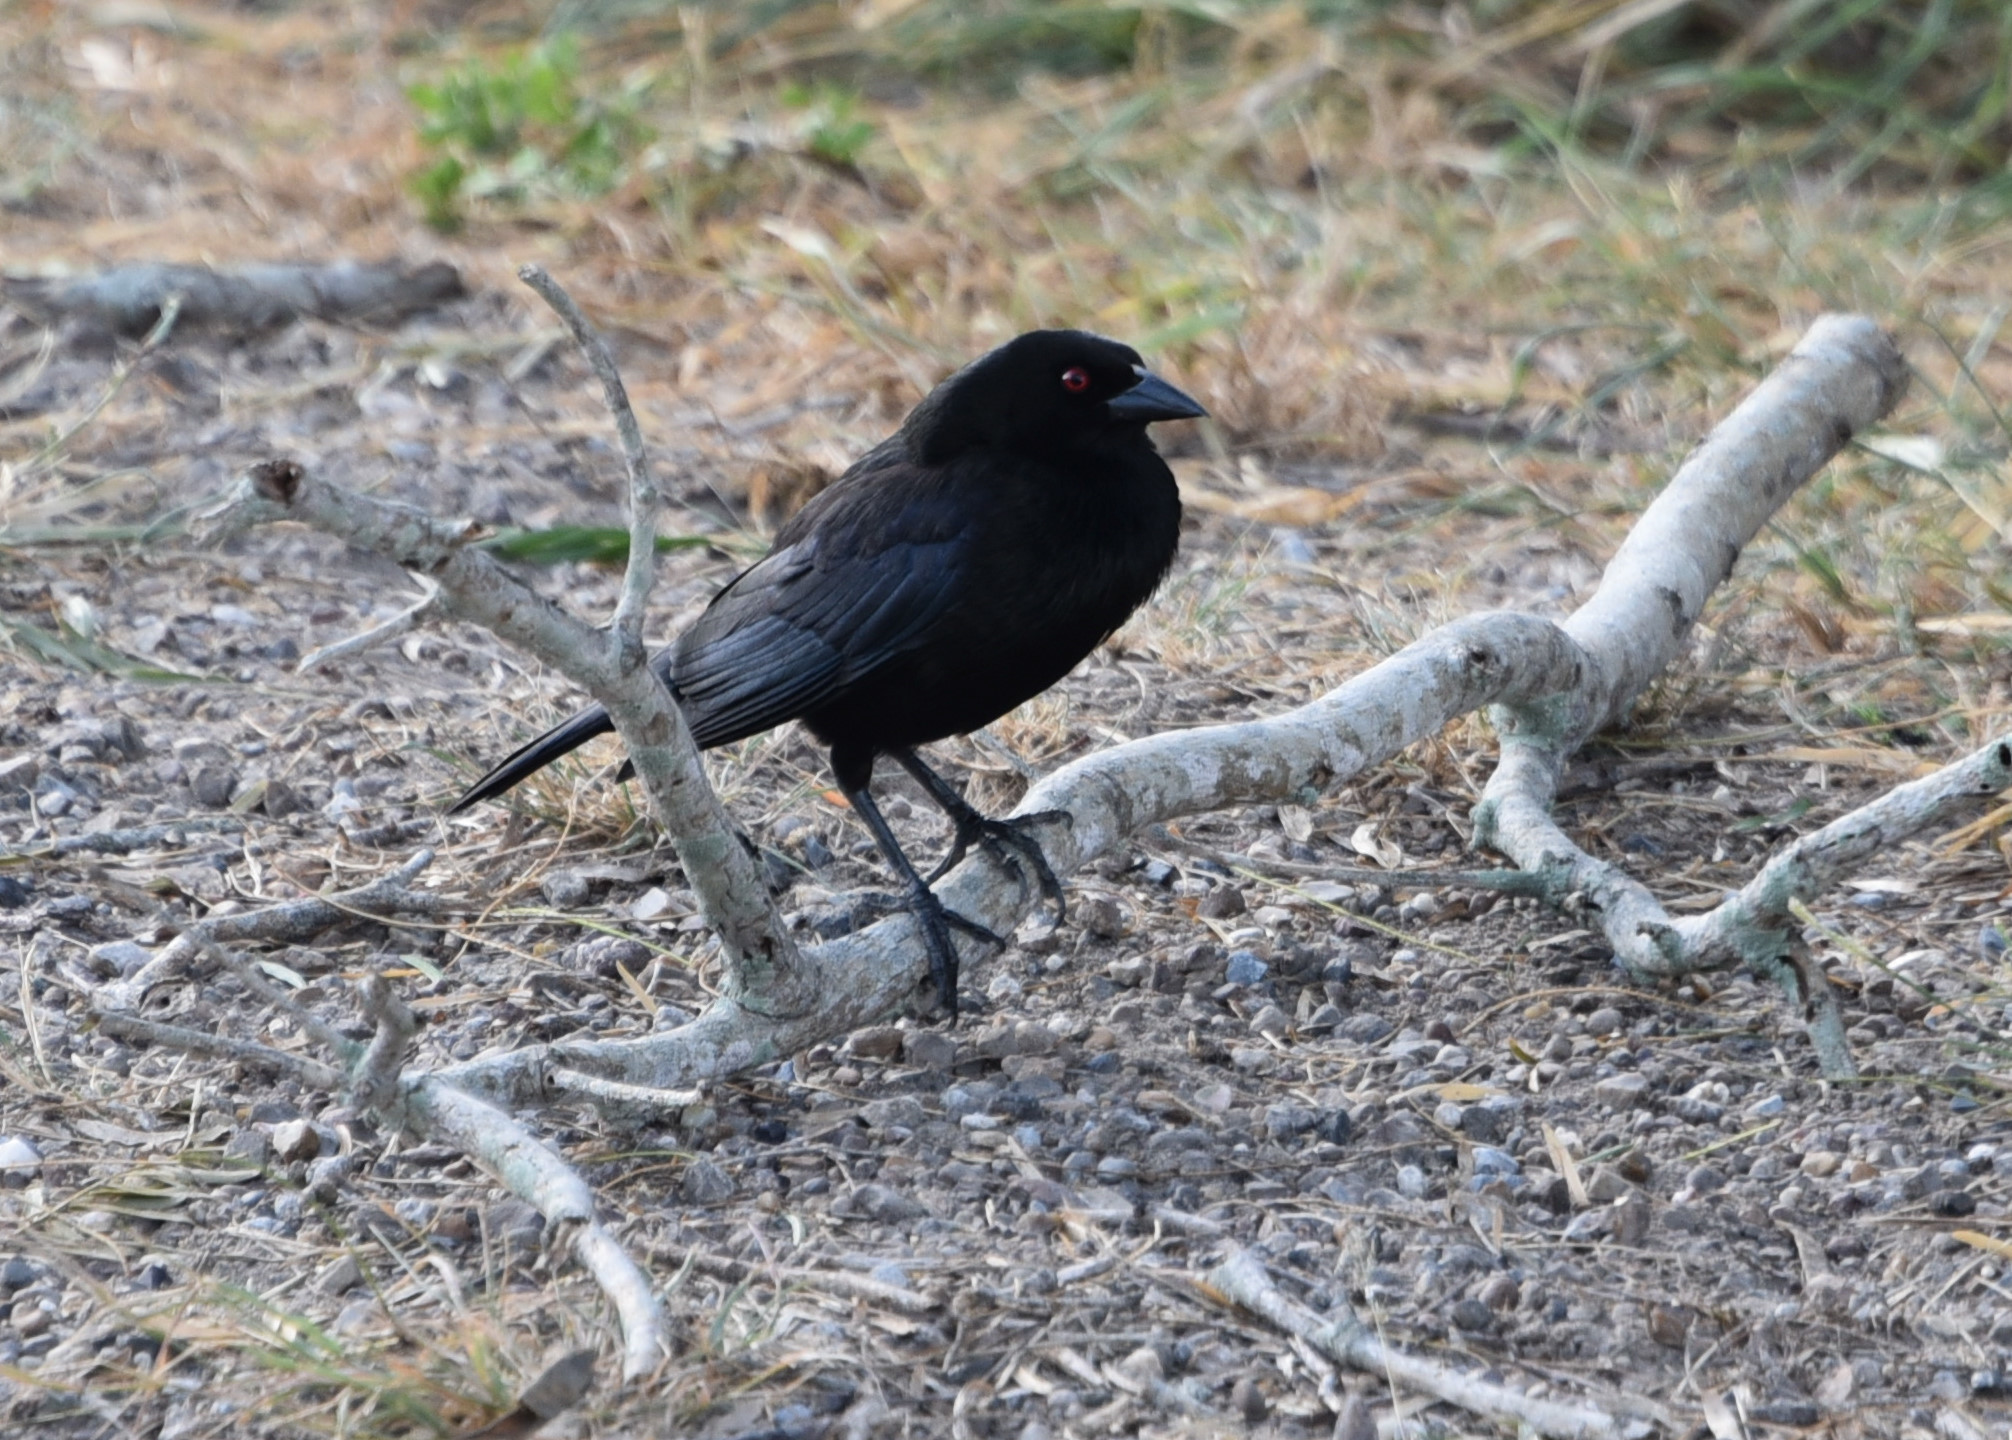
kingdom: Animalia
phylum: Chordata
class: Aves
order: Passeriformes
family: Icteridae
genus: Molothrus
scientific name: Molothrus aeneus
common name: Bronzed cowbird
